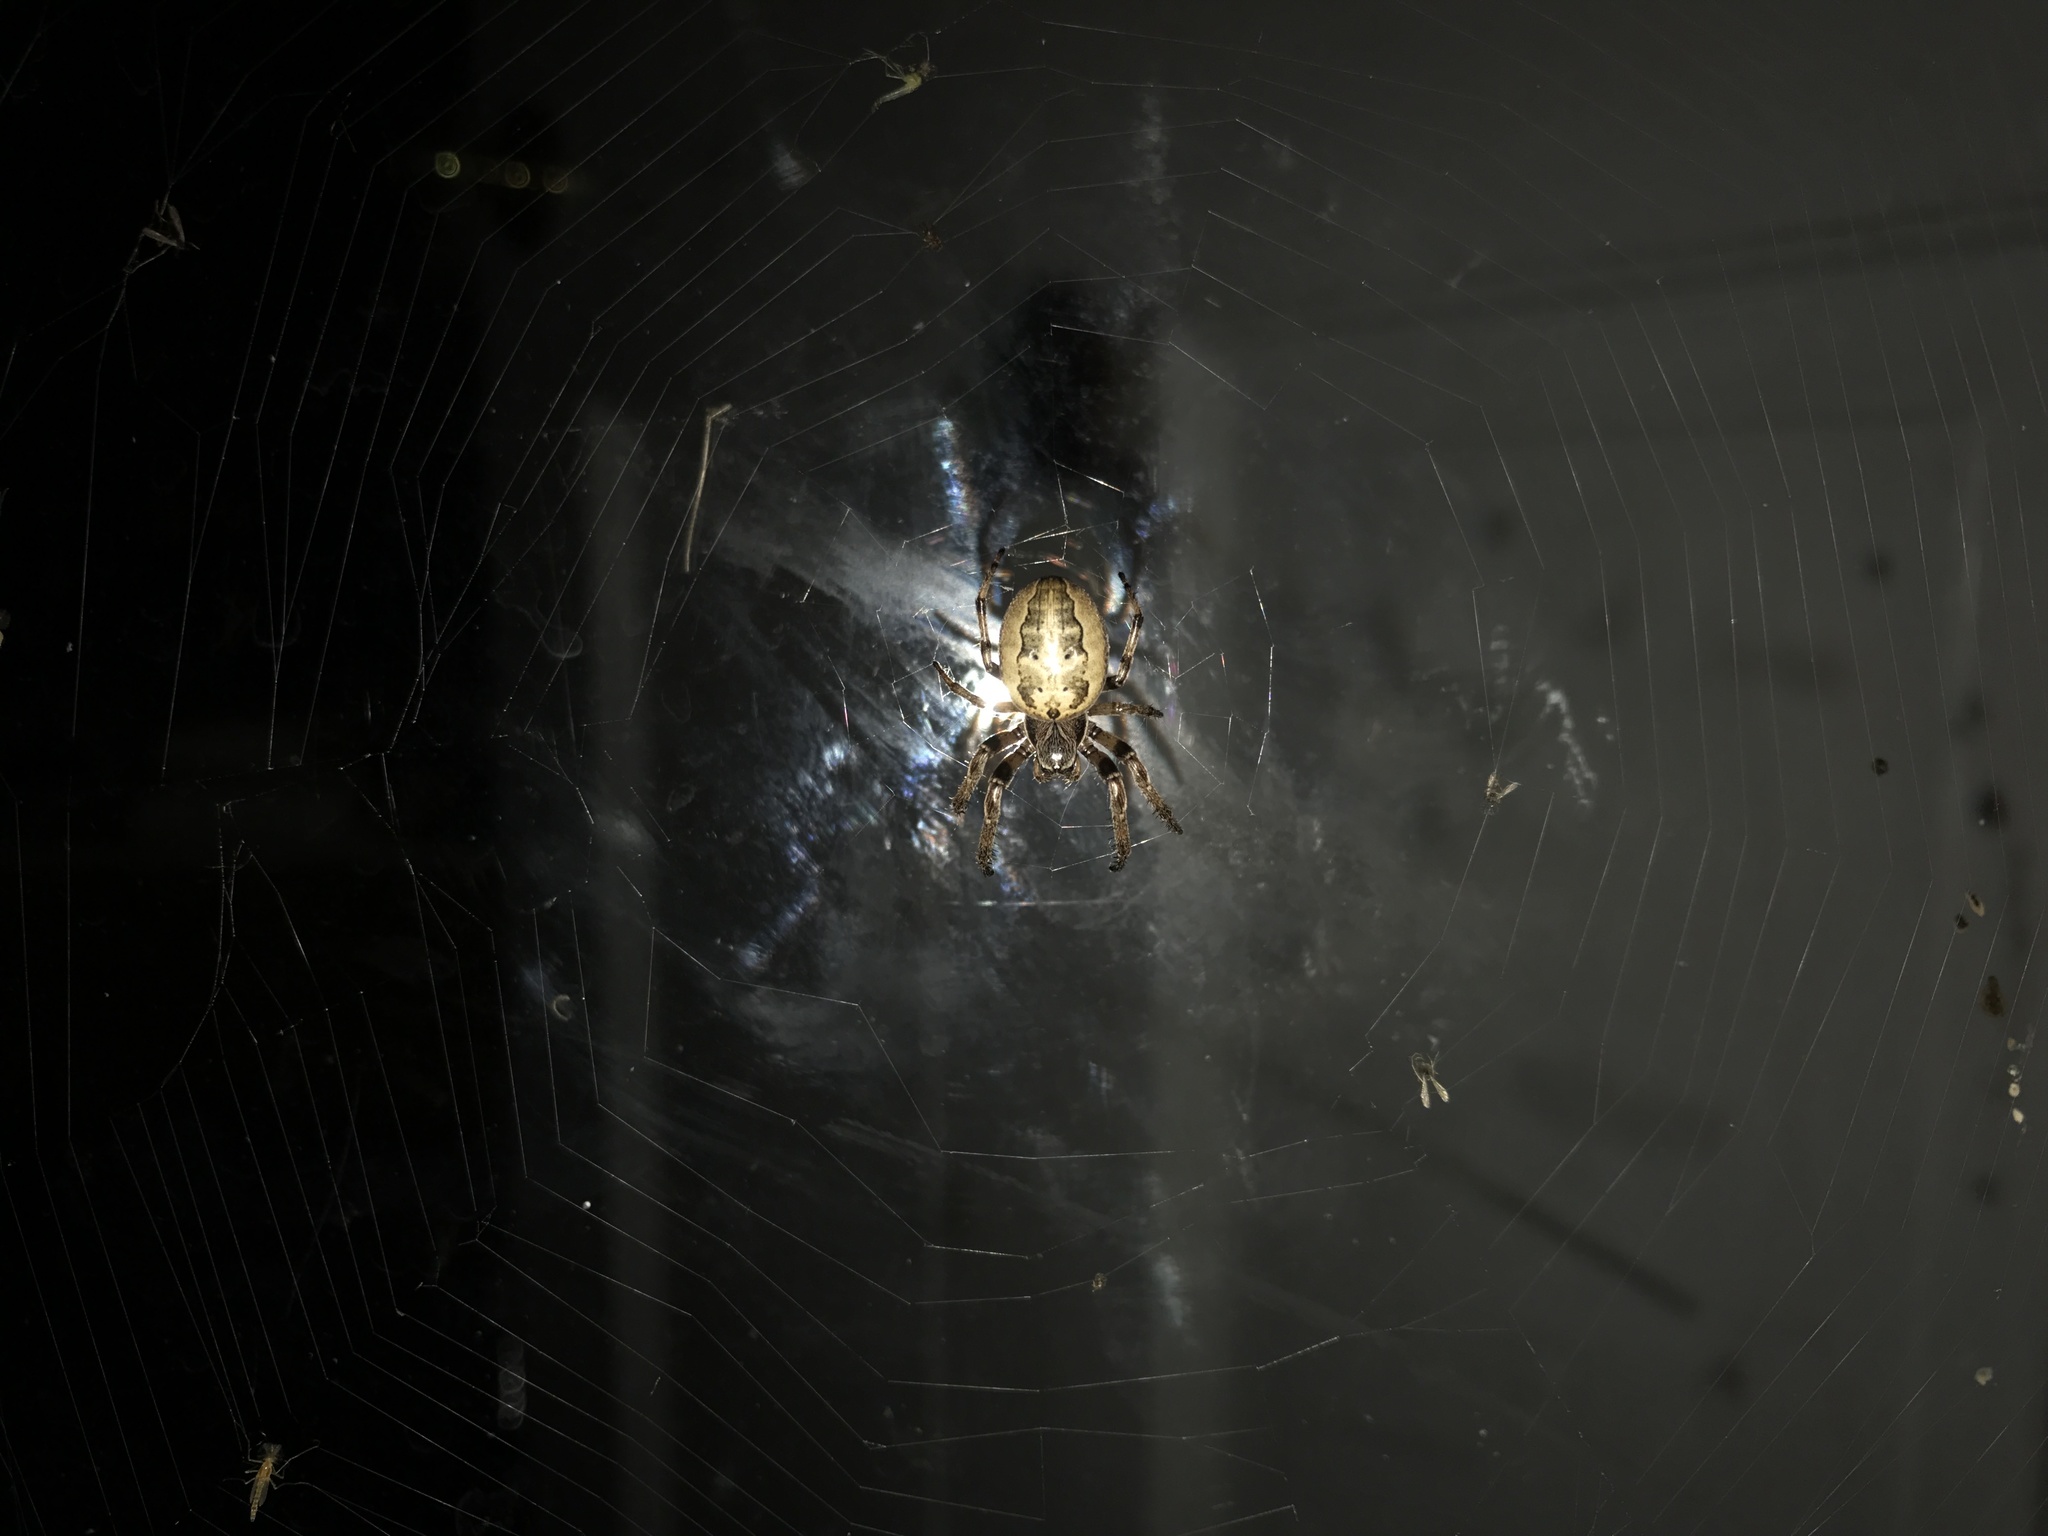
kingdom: Animalia
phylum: Arthropoda
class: Arachnida
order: Araneae
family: Araneidae
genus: Larinioides
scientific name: Larinioides cornutus
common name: Furrow orbweaver
